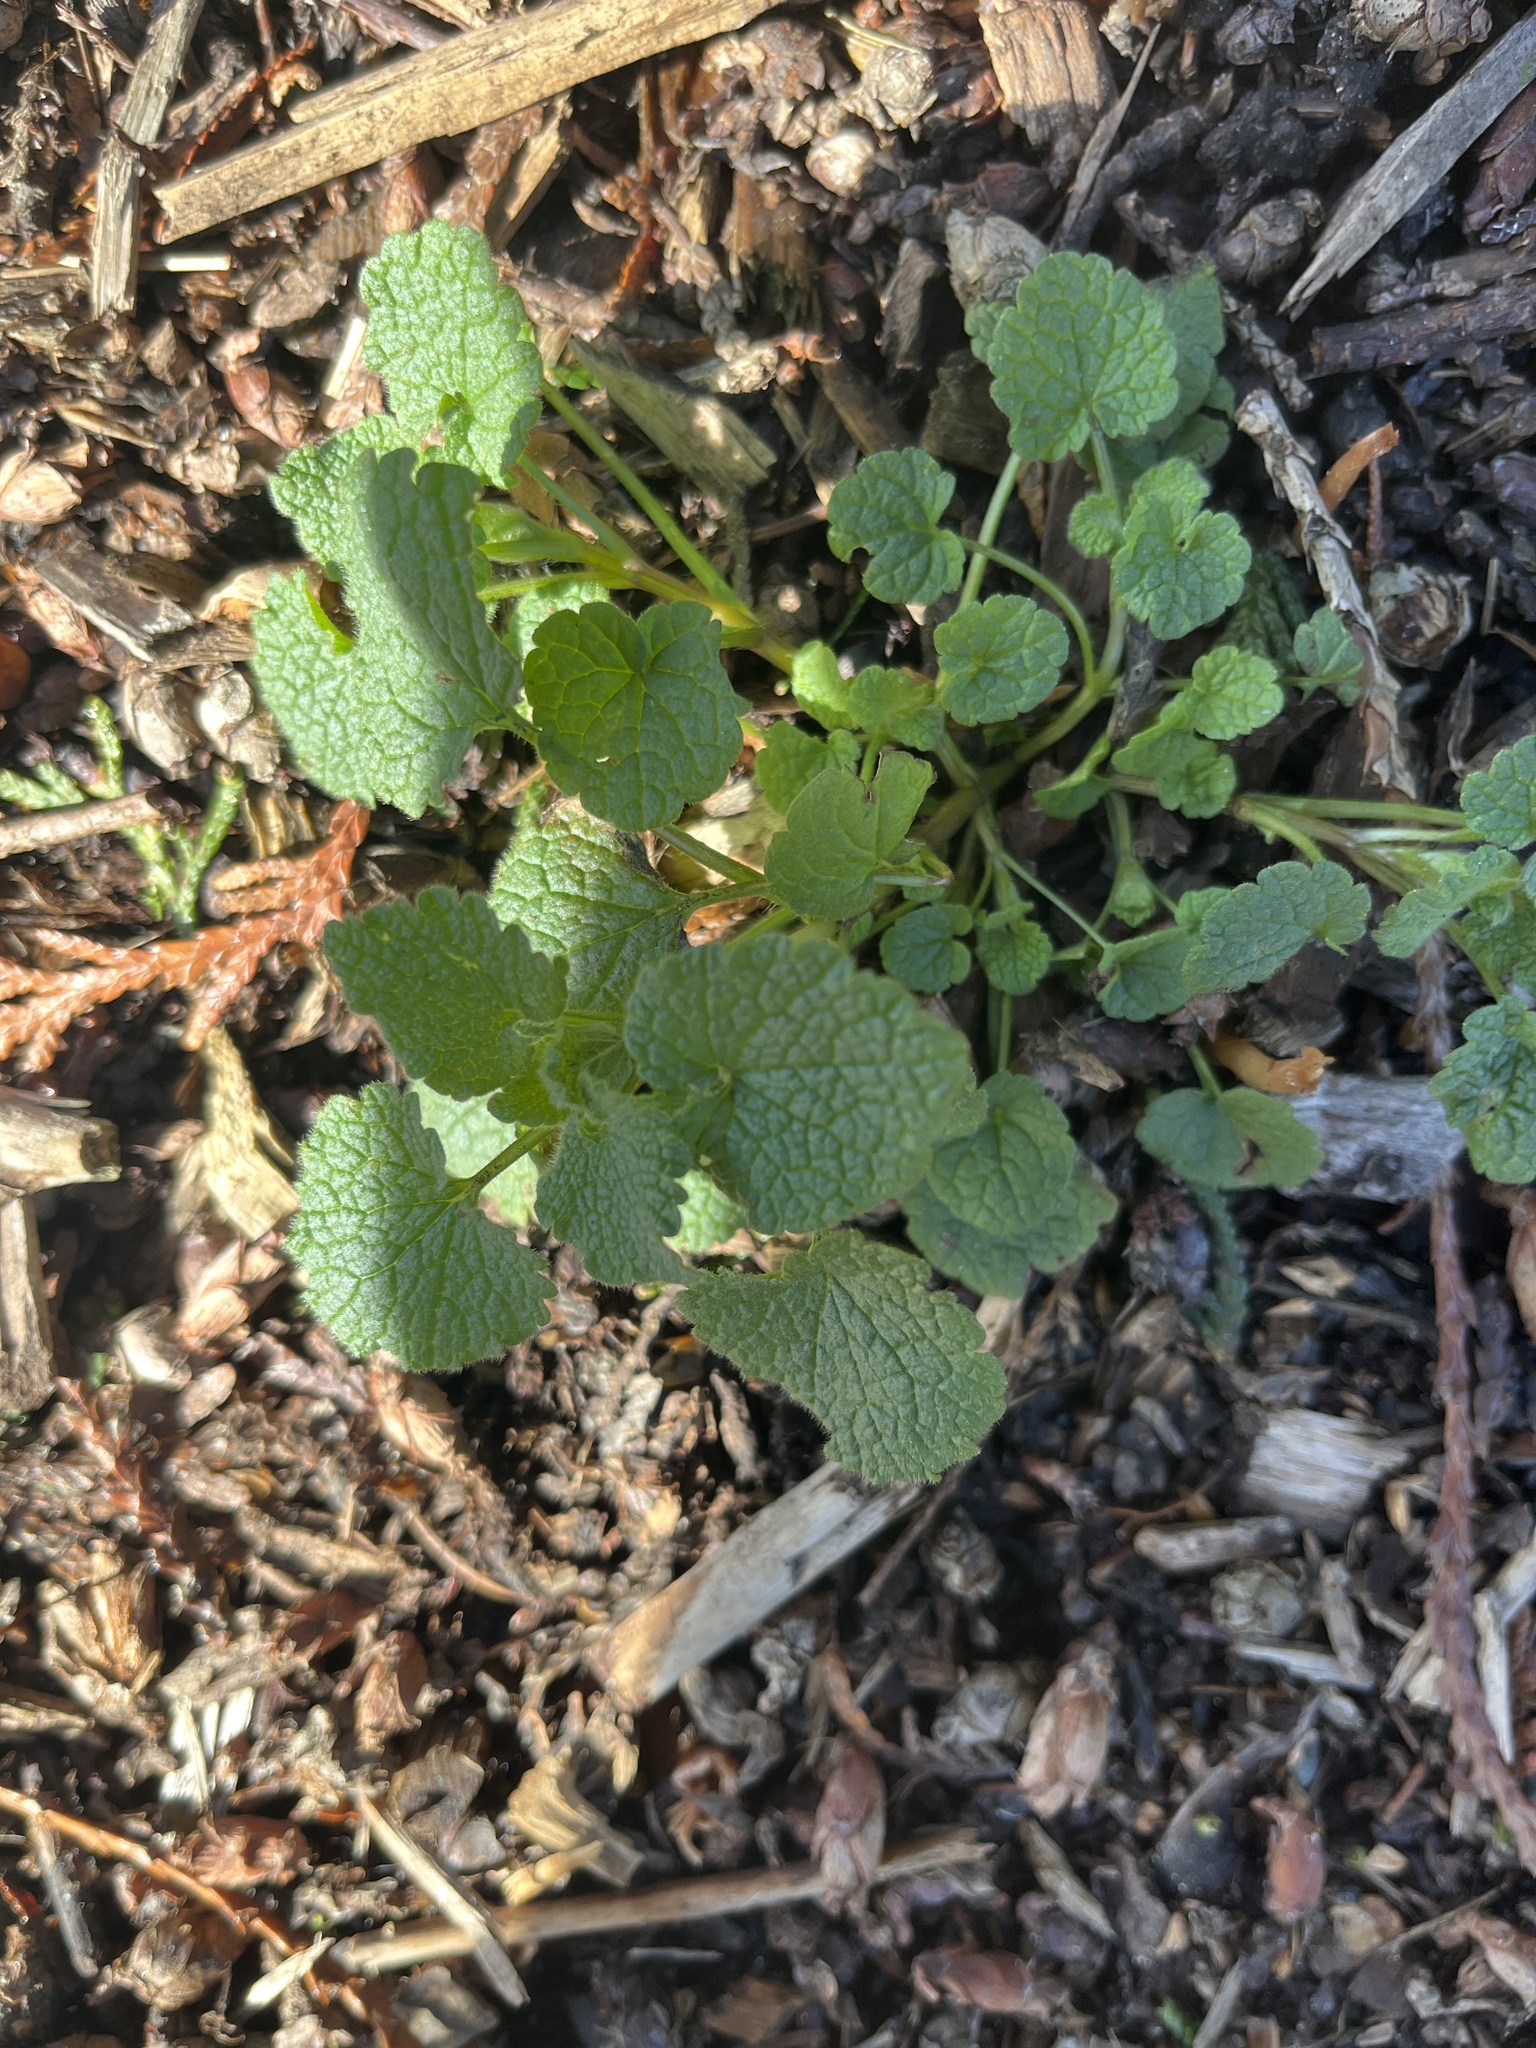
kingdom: Plantae
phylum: Tracheophyta
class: Magnoliopsida
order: Lamiales
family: Lamiaceae
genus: Lamium
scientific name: Lamium purpureum
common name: Red dead-nettle
